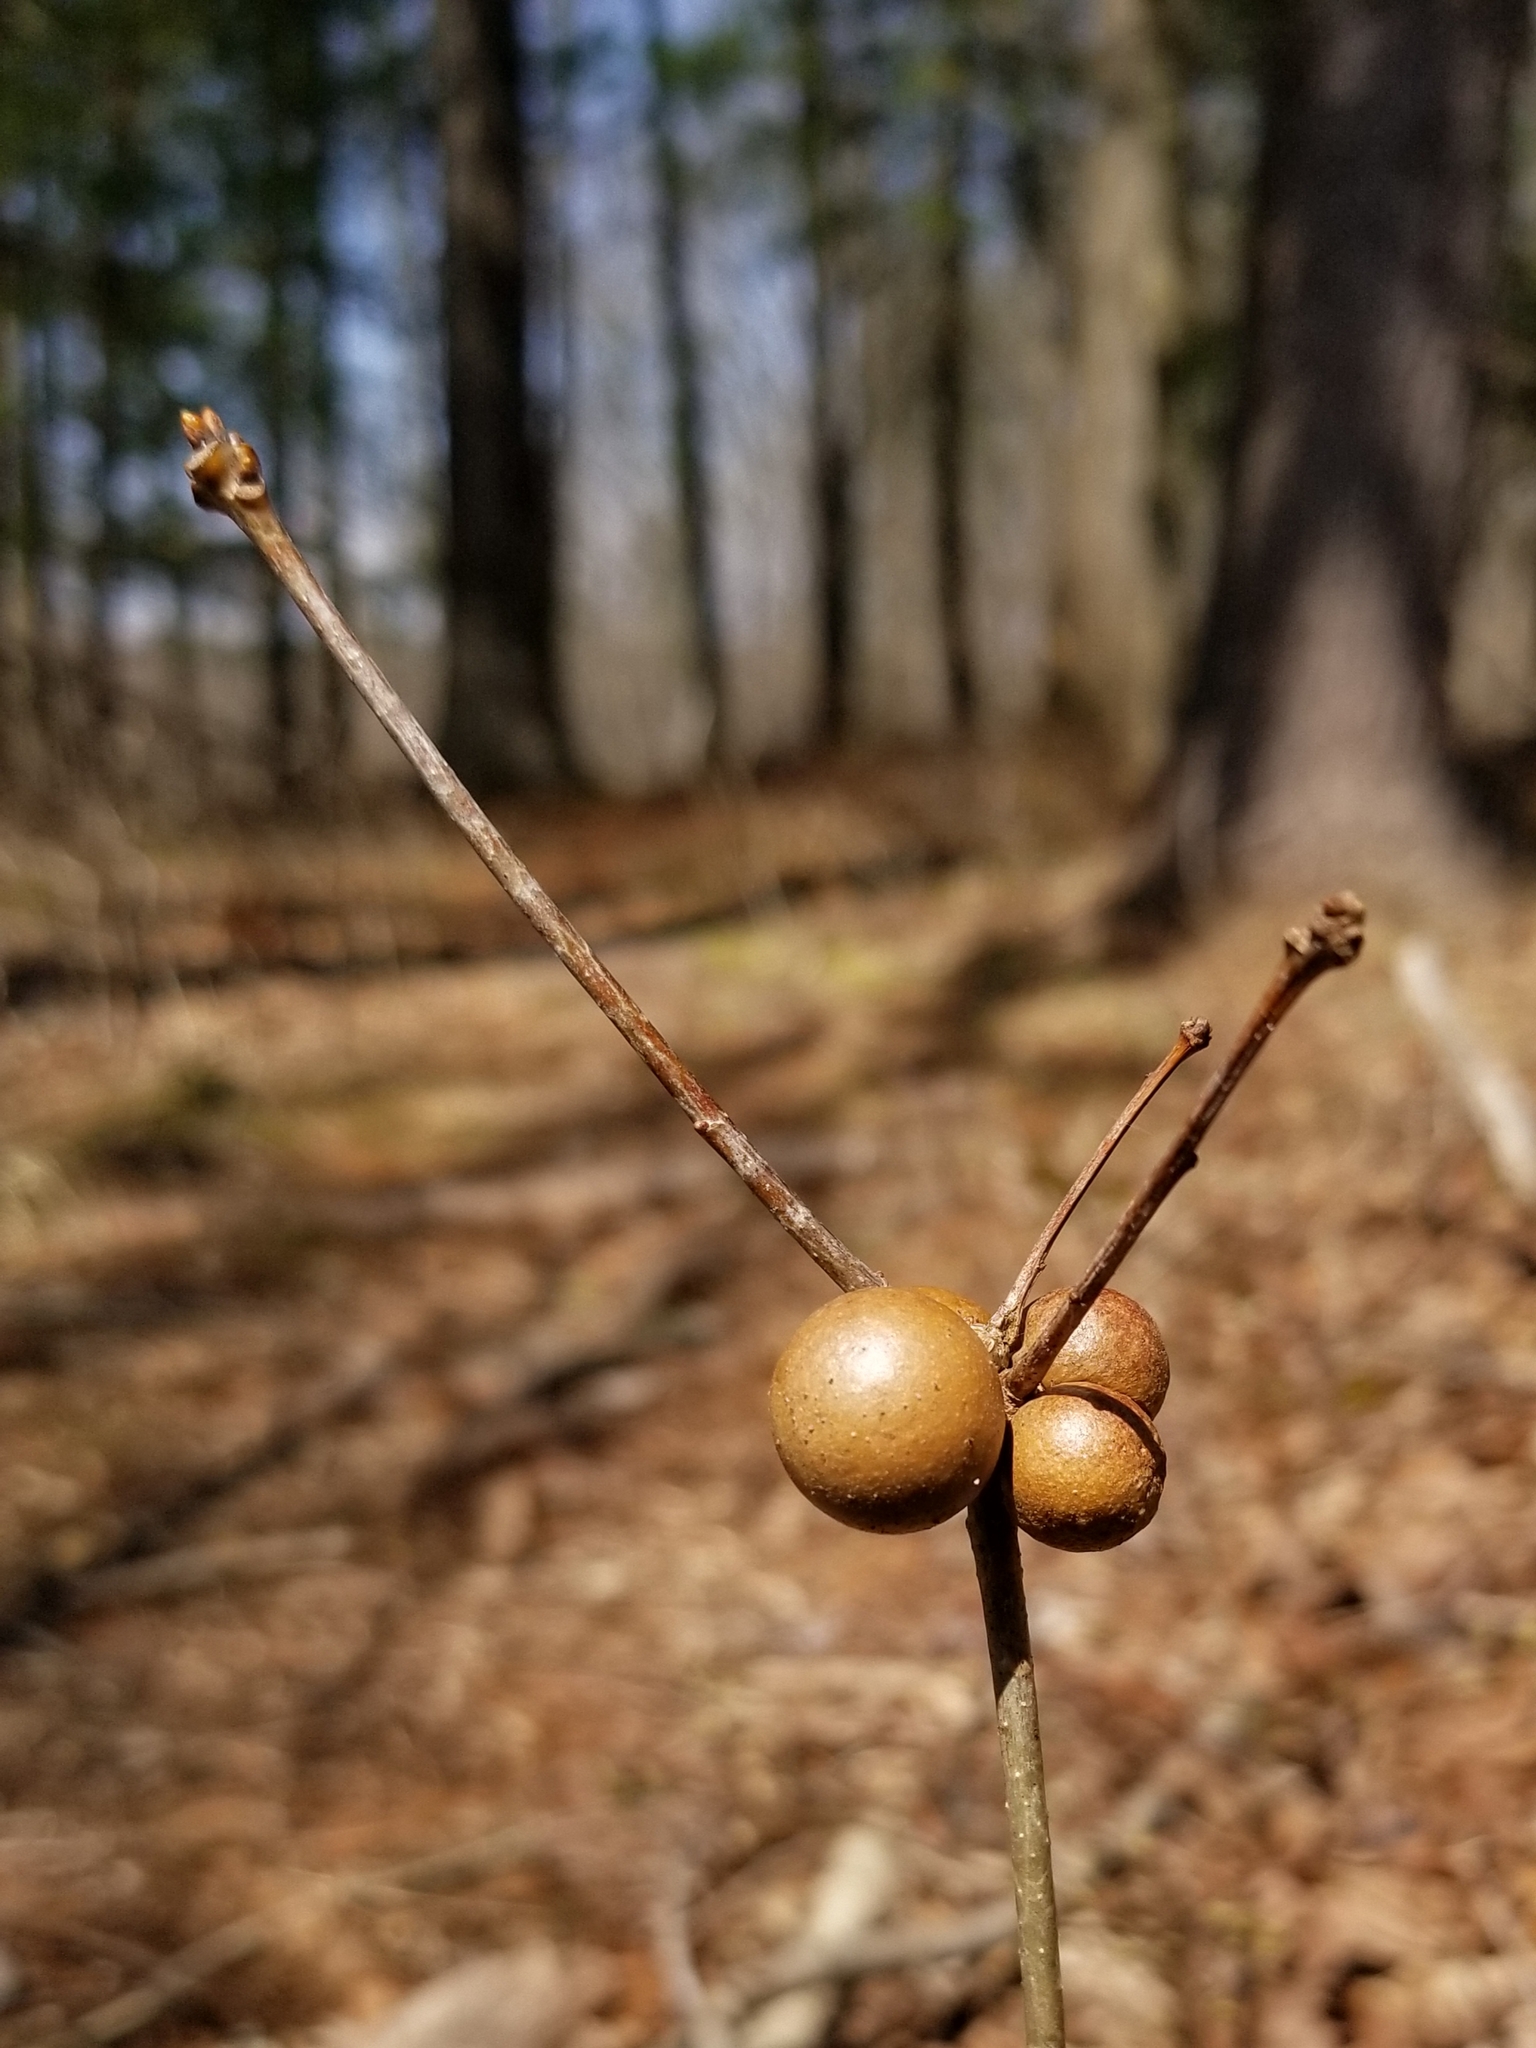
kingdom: Animalia
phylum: Arthropoda
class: Insecta
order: Hymenoptera
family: Cynipidae
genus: Disholcaspis
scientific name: Disholcaspis quercusglobulus
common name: Round bullet gall wasp
